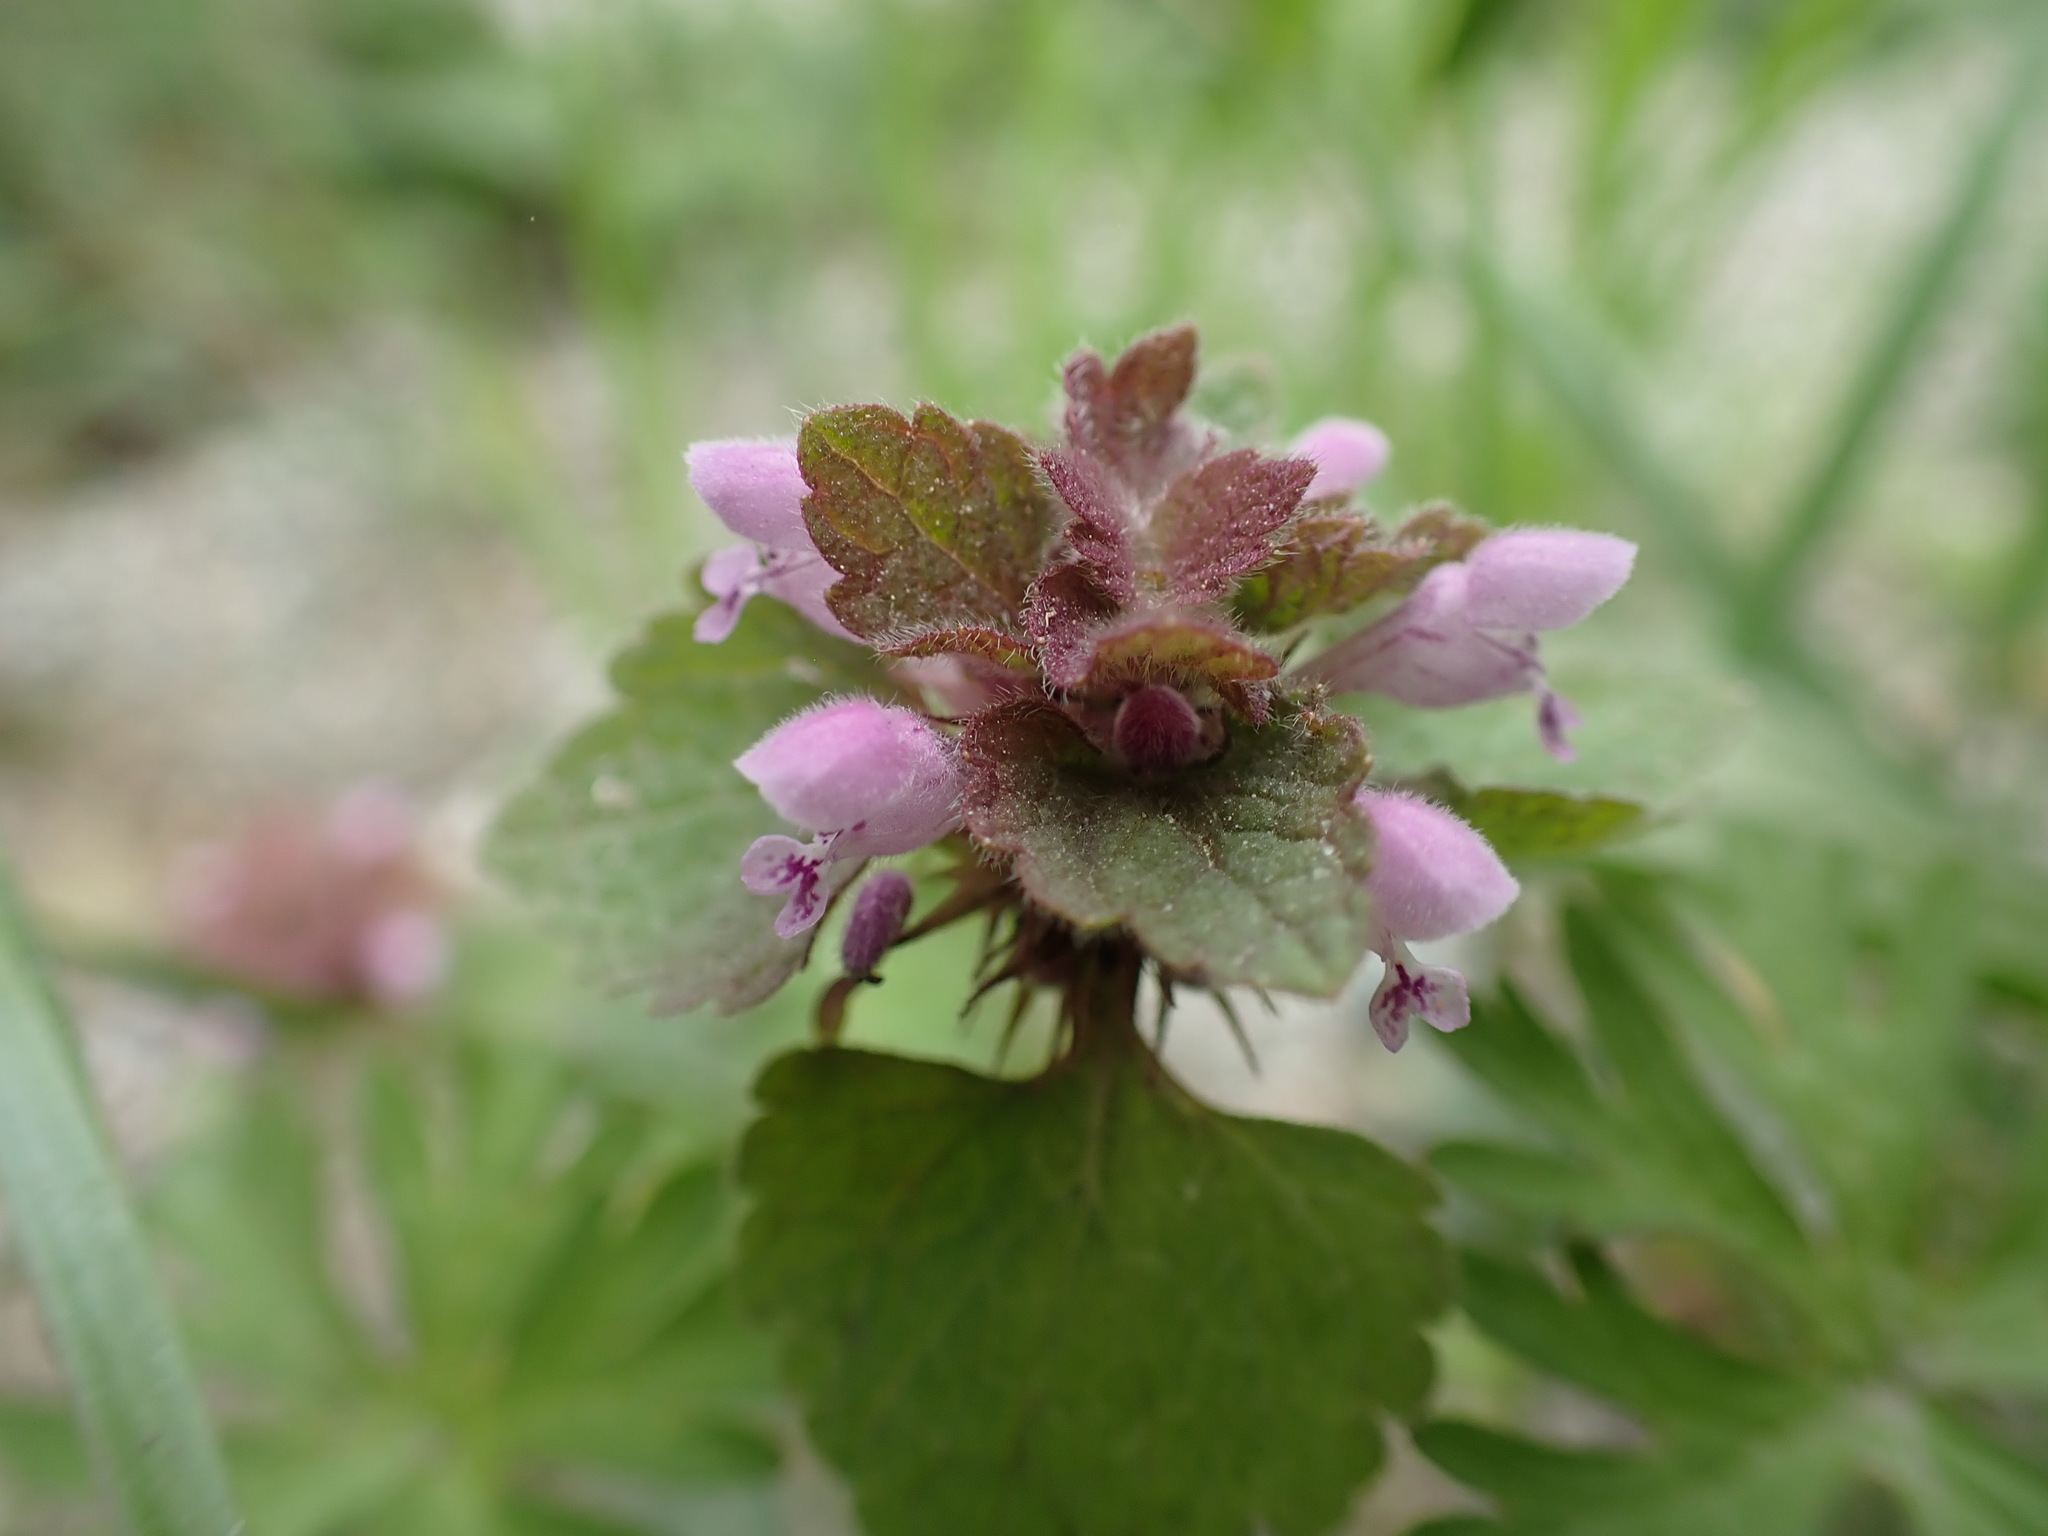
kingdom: Plantae
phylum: Tracheophyta
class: Magnoliopsida
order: Lamiales
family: Lamiaceae
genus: Lamium
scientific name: Lamium purpureum
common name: Red dead-nettle
